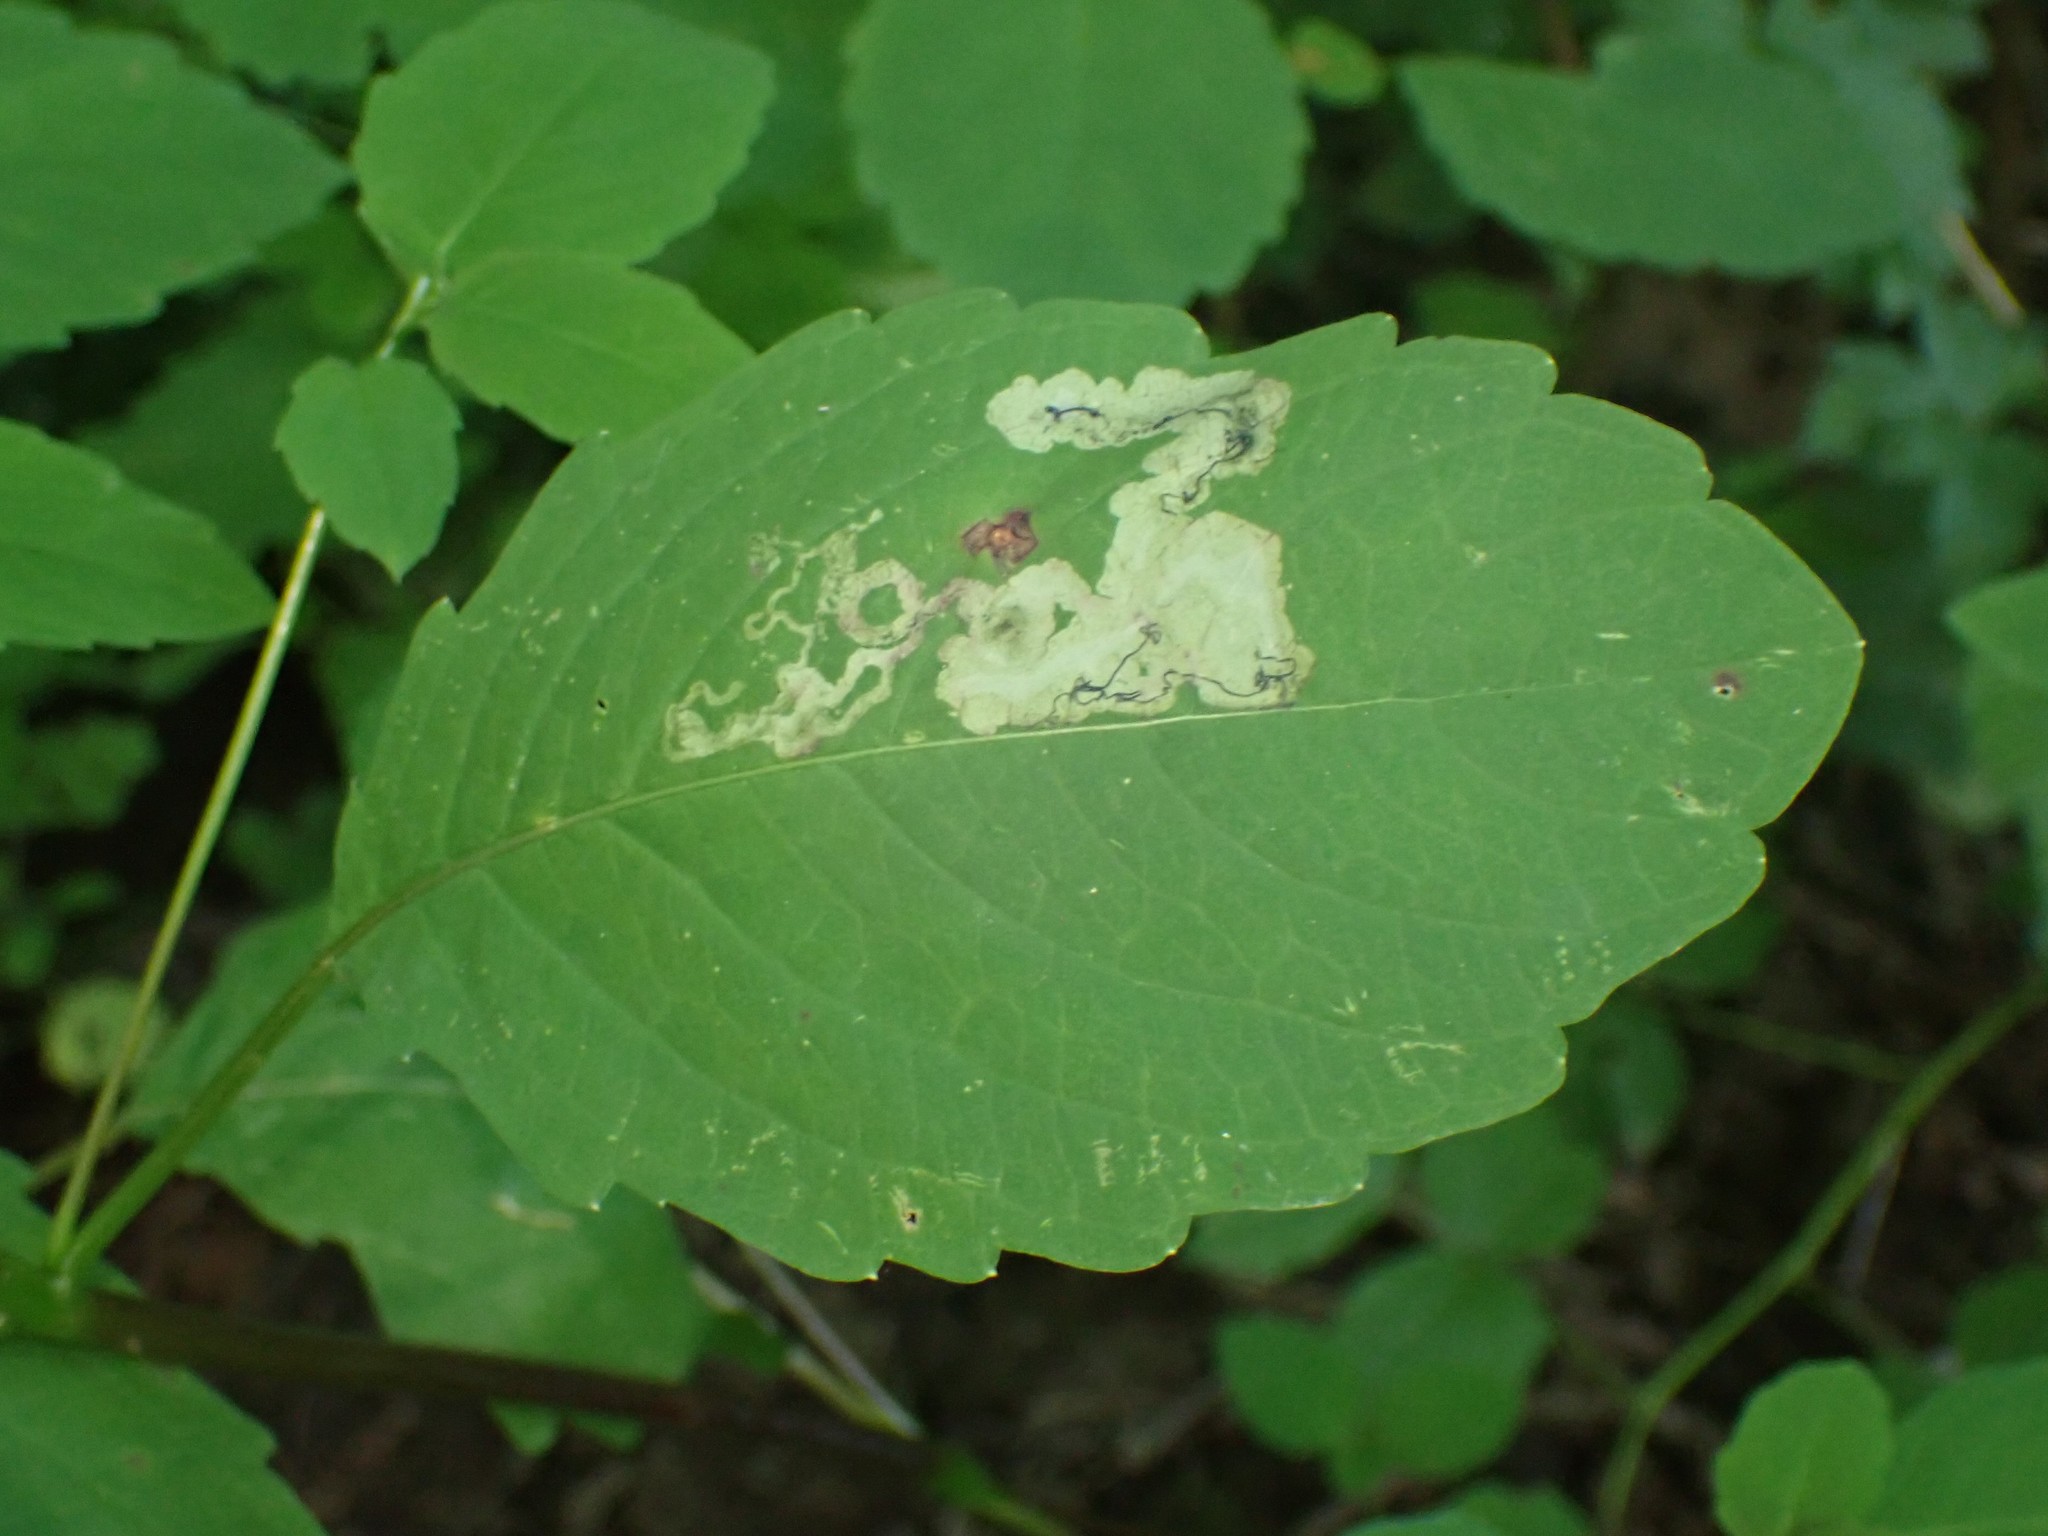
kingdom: Animalia
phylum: Arthropoda
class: Insecta
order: Diptera
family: Agromyzidae
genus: Phytoliriomyza
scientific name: Phytoliriomyza melampyga
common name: Jewelweed leaf-miner fly
